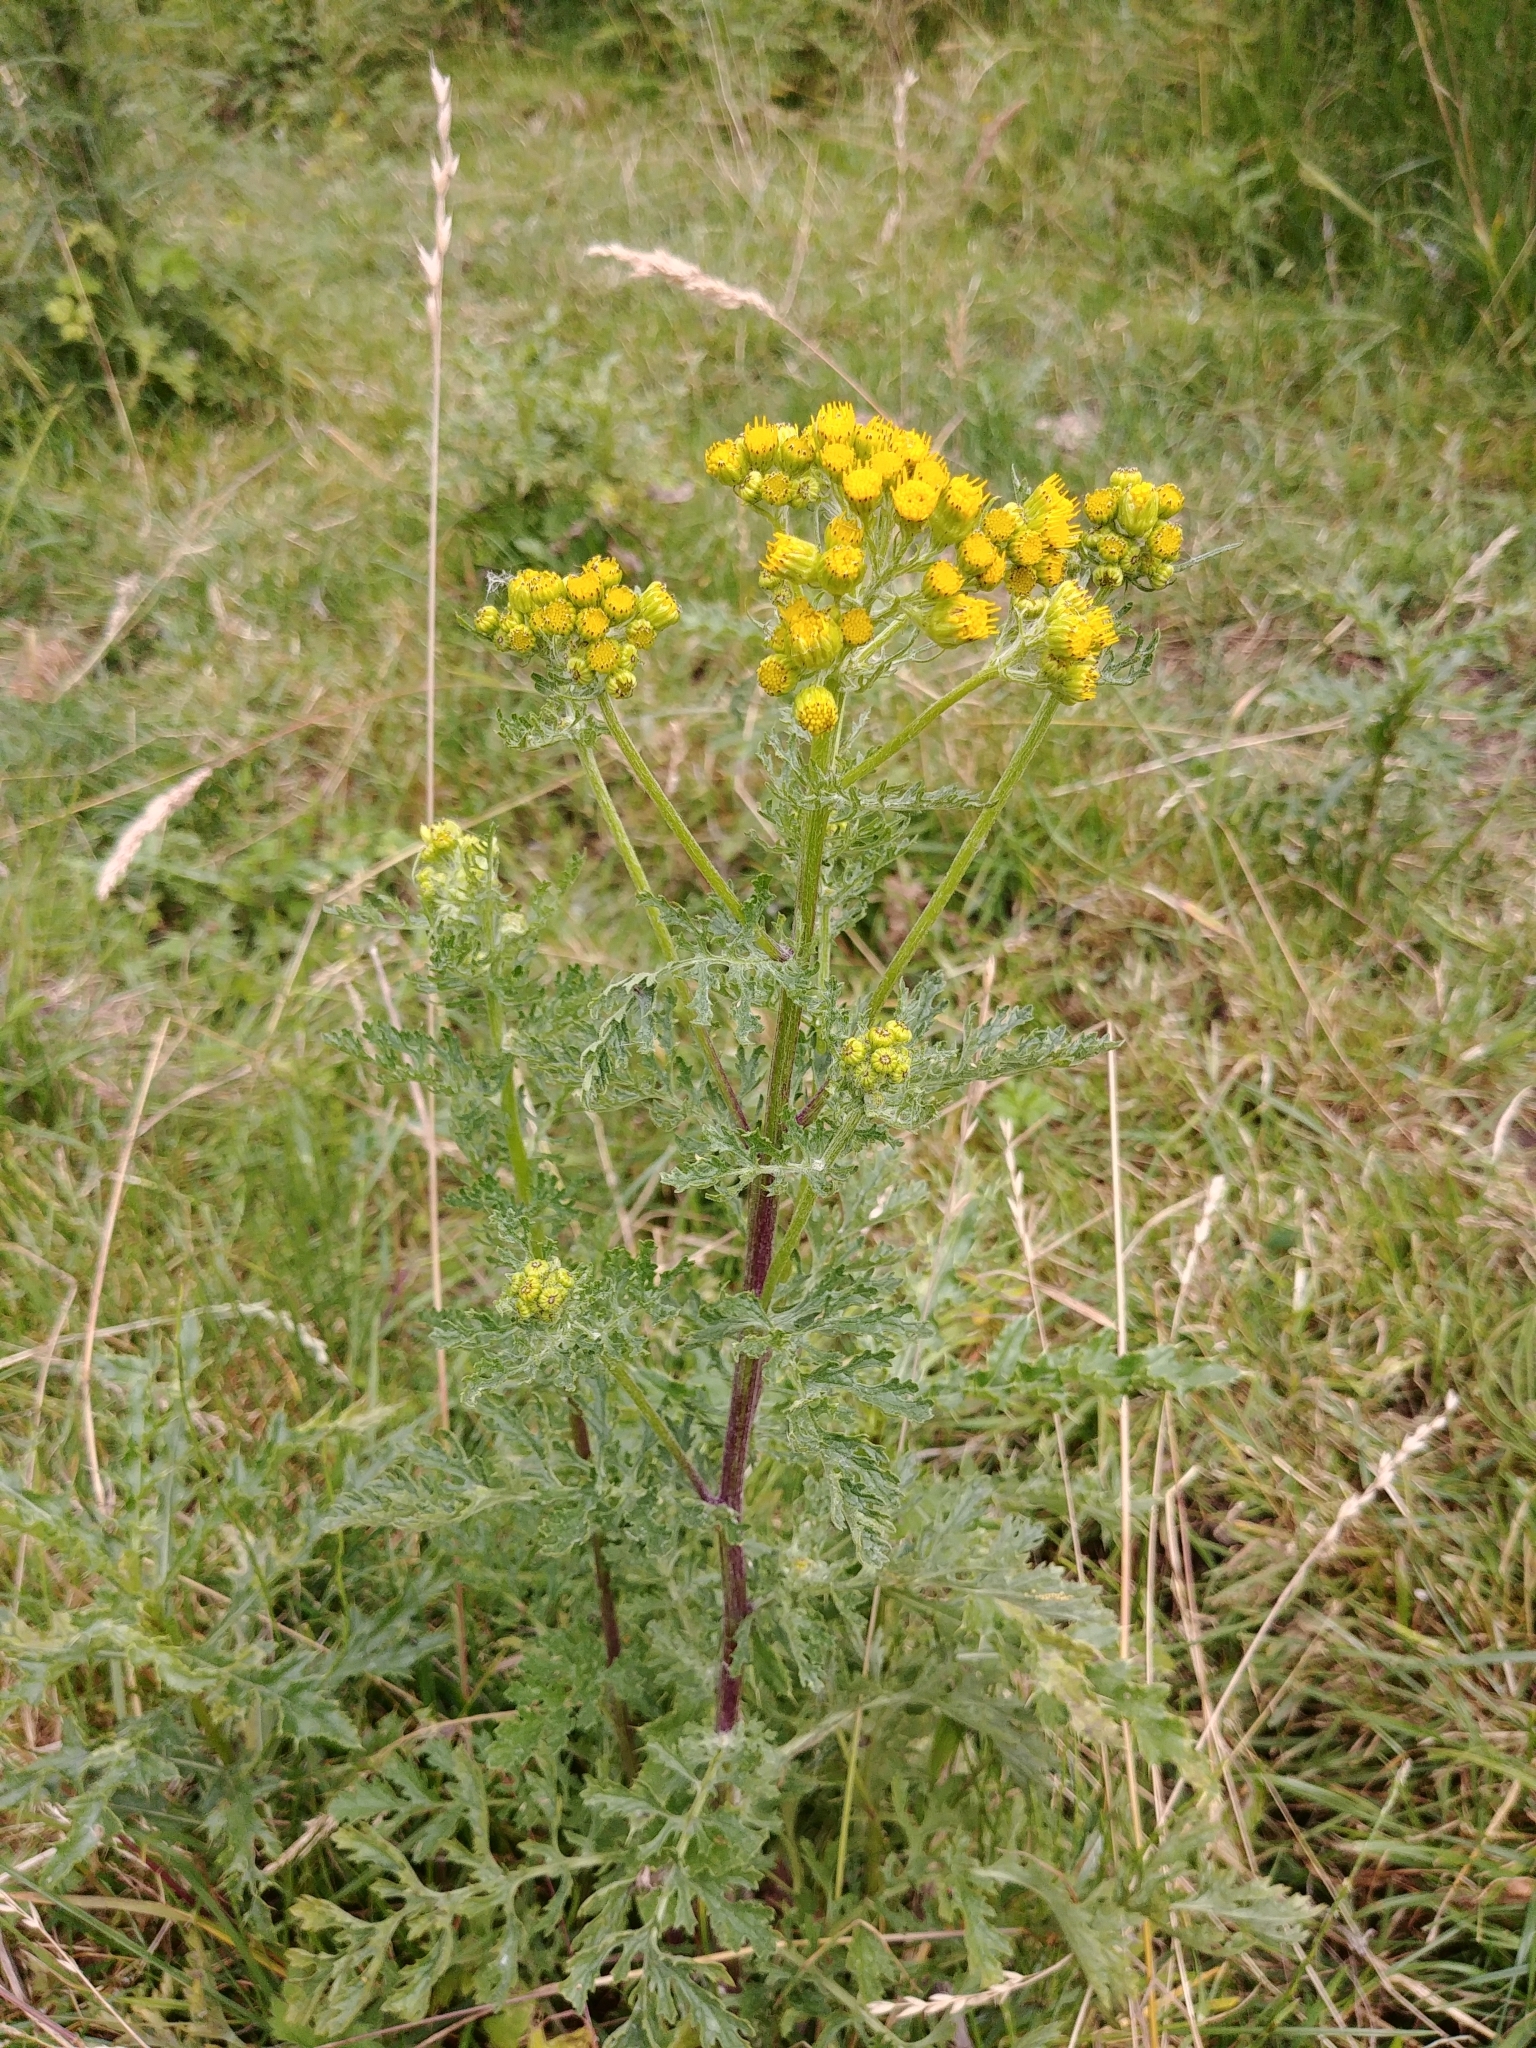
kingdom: Plantae
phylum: Tracheophyta
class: Magnoliopsida
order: Asterales
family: Asteraceae
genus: Jacobaea
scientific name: Jacobaea vulgaris
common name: Stinking willie
